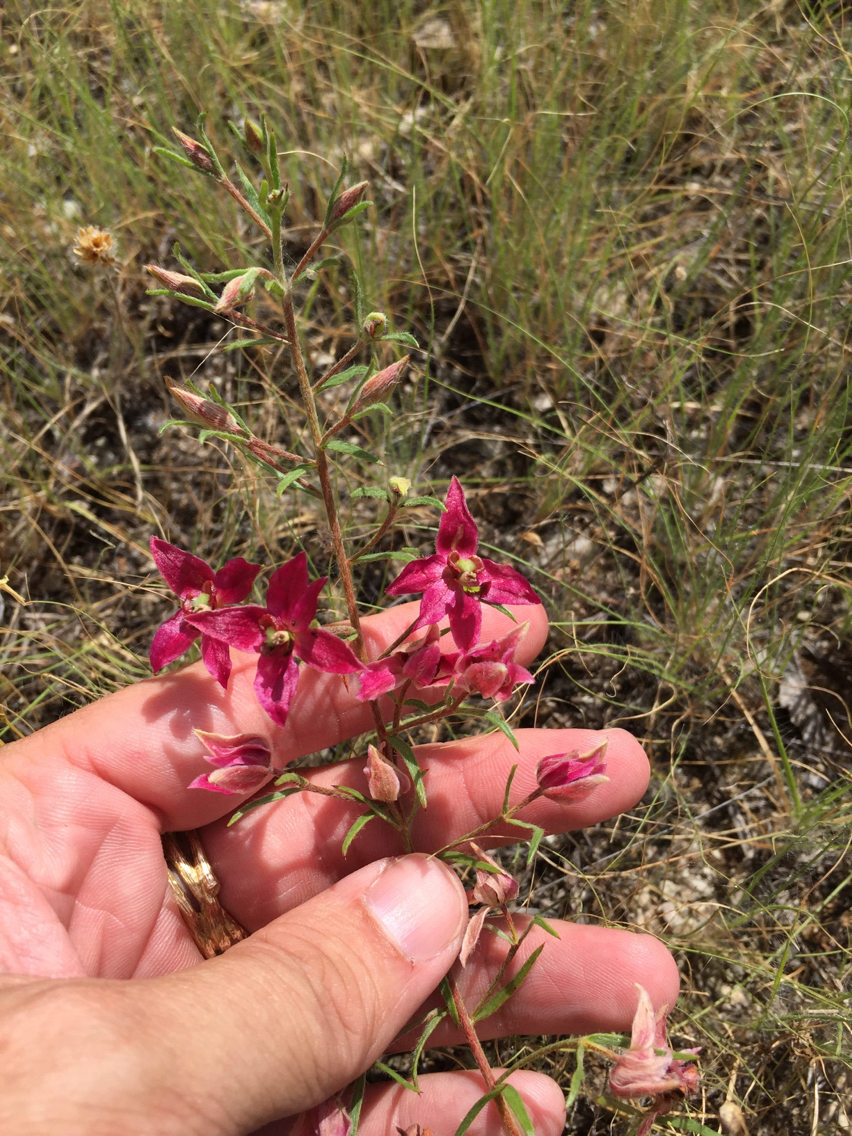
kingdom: Plantae
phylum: Tracheophyta
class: Magnoliopsida
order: Zygophyllales
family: Krameriaceae
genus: Krameria
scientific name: Krameria lanceolata
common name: Ratany
